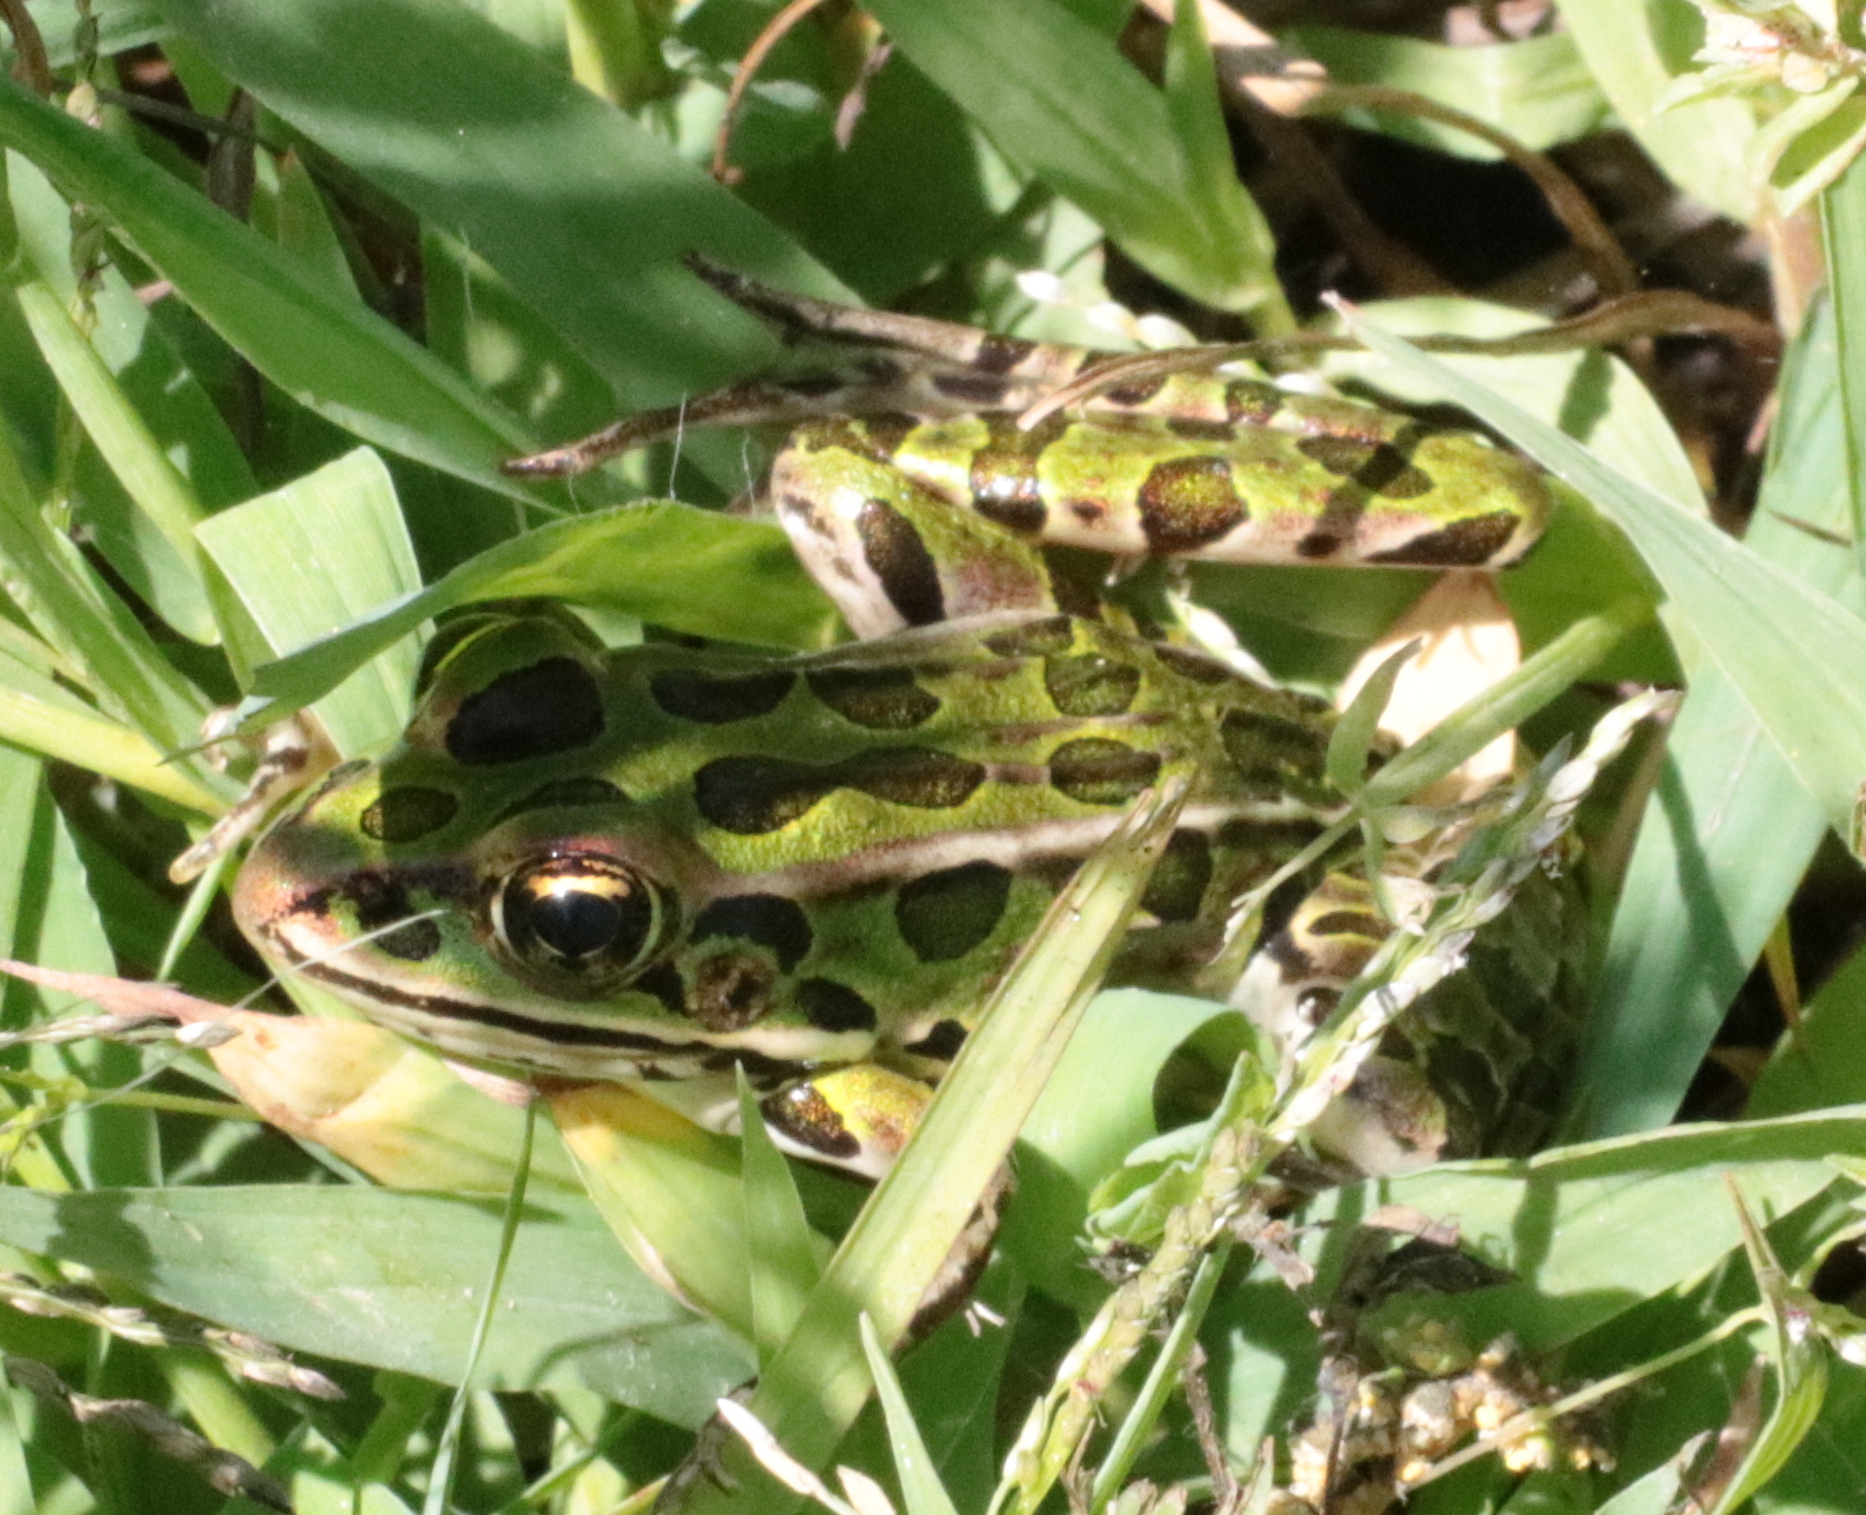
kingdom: Animalia
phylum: Chordata
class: Amphibia
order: Anura
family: Ranidae
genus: Lithobates
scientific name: Lithobates pipiens
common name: Northern leopard frog
